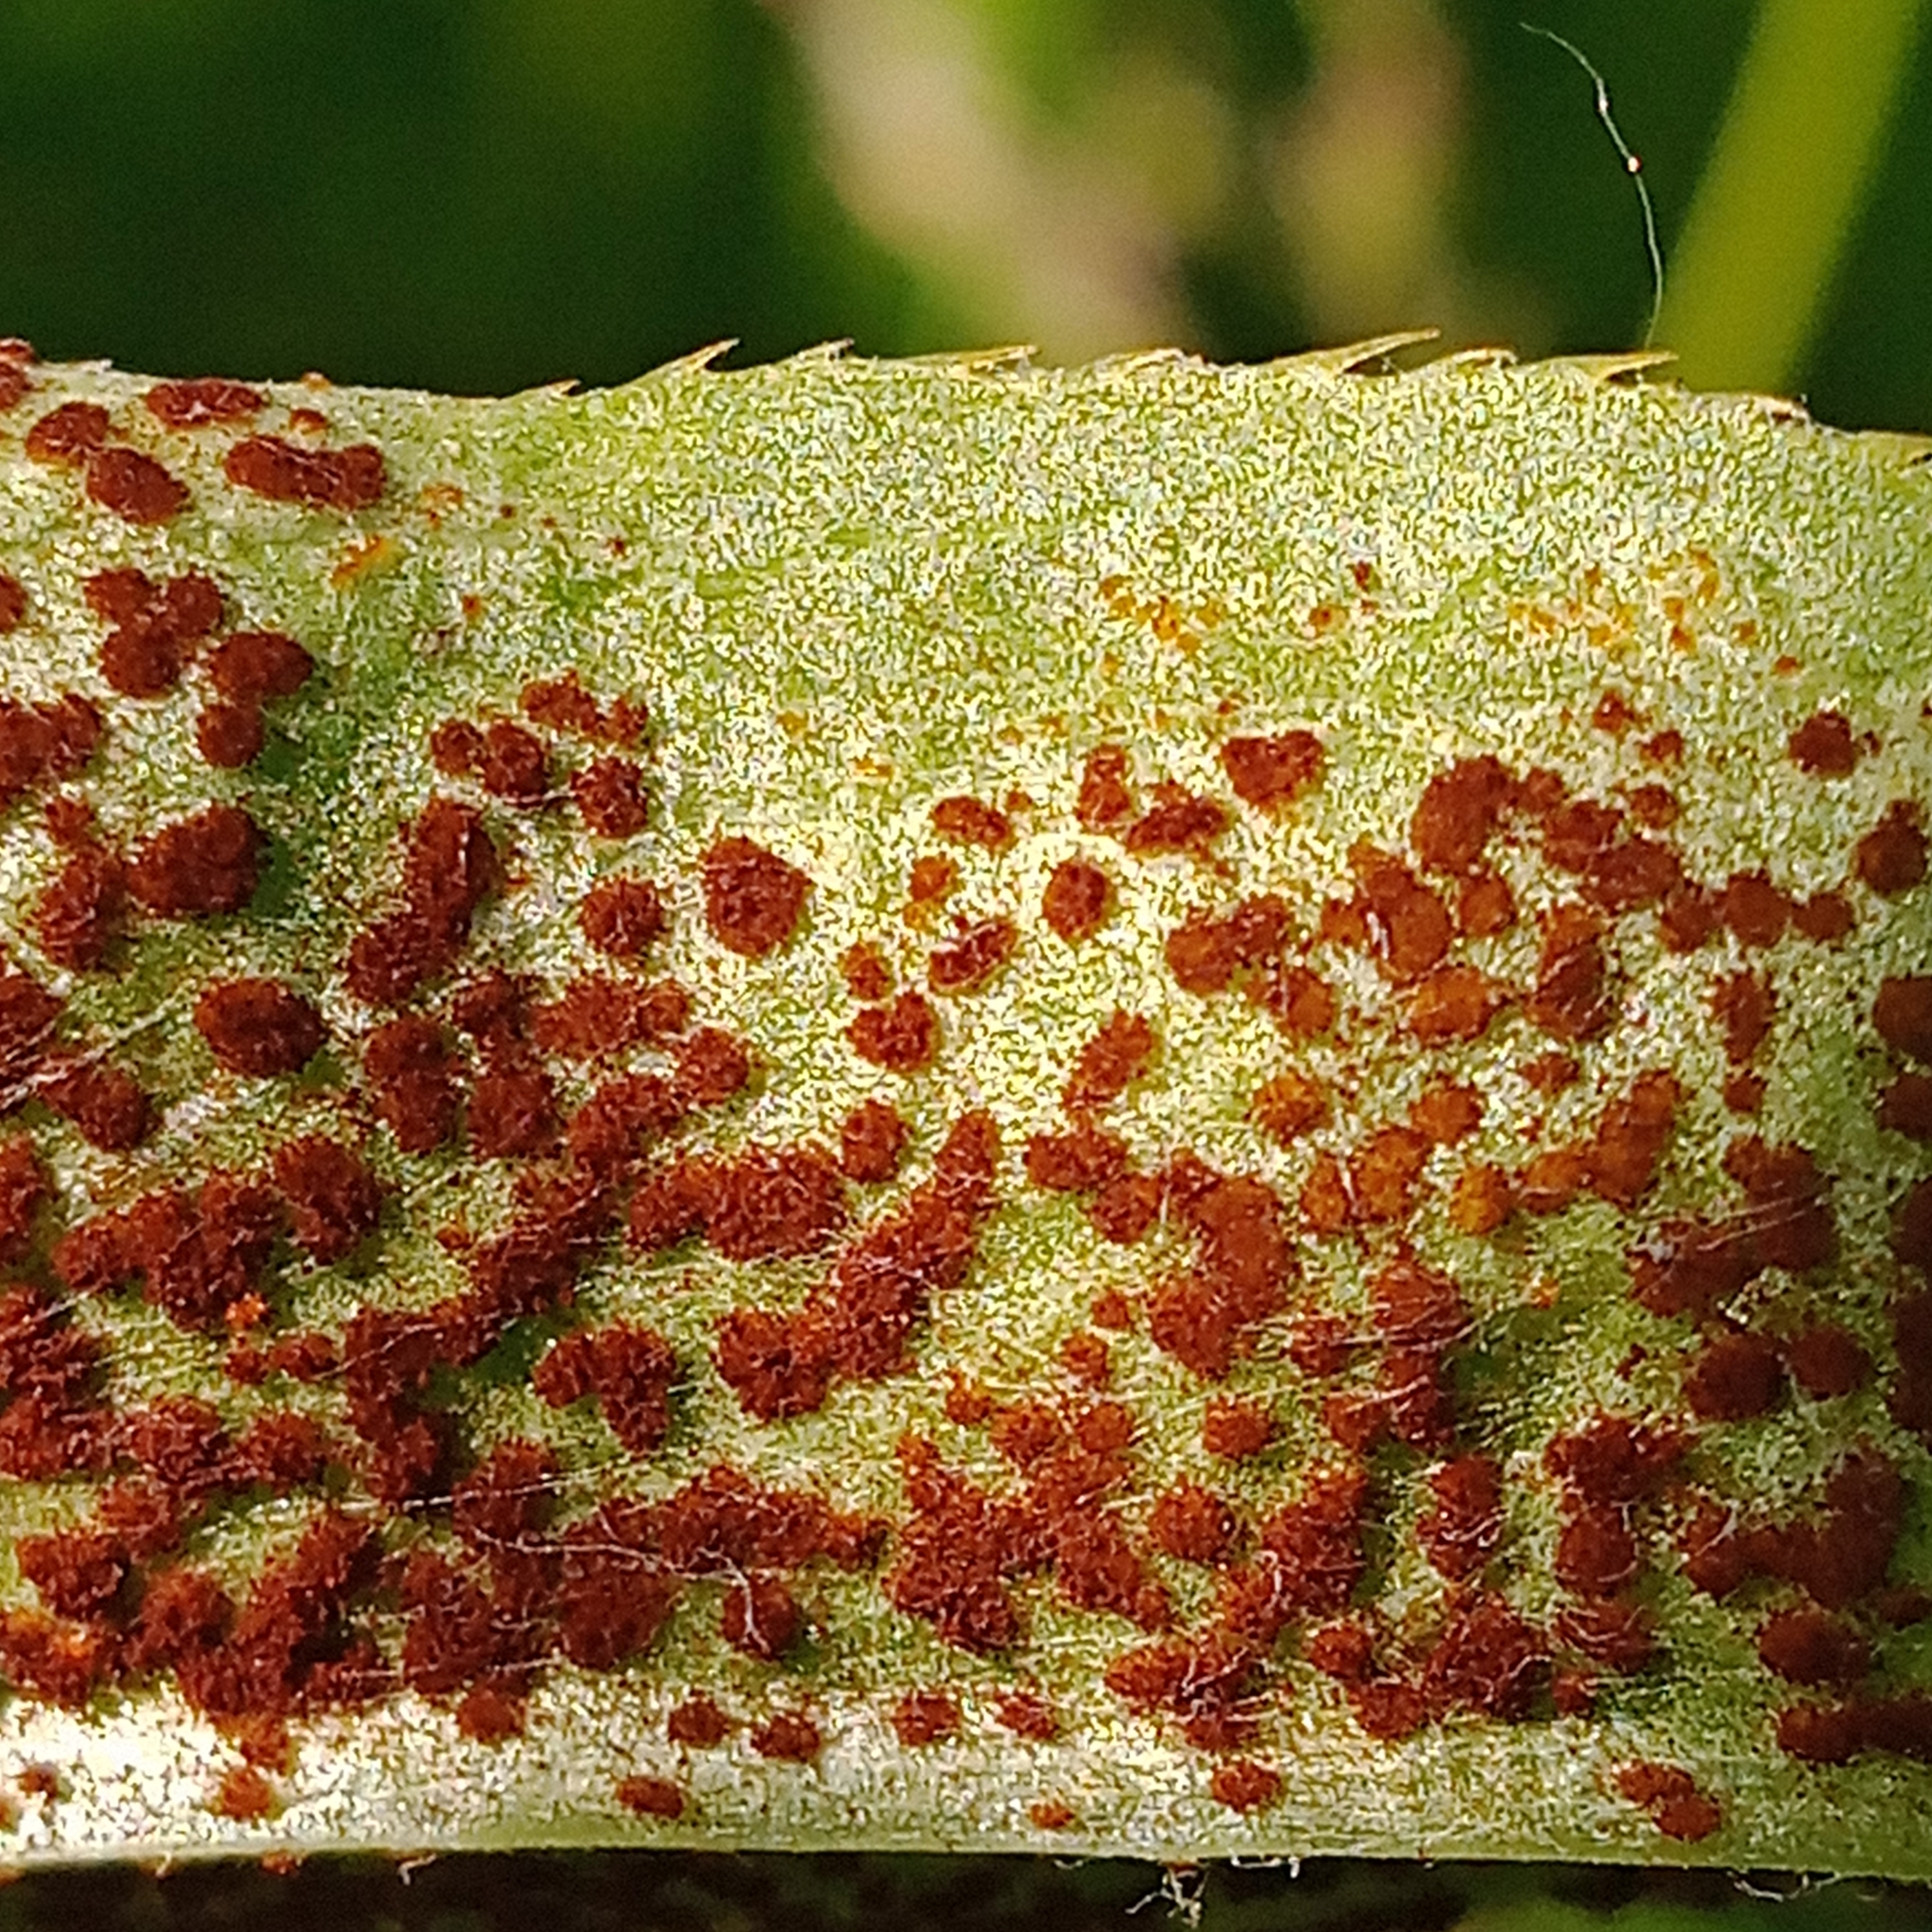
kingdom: Fungi
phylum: Basidiomycota
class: Pucciniomycetes
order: Pucciniales
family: Pucciniaceae
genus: Puccinia
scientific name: Puccinia suaveolens
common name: Thistle rust
